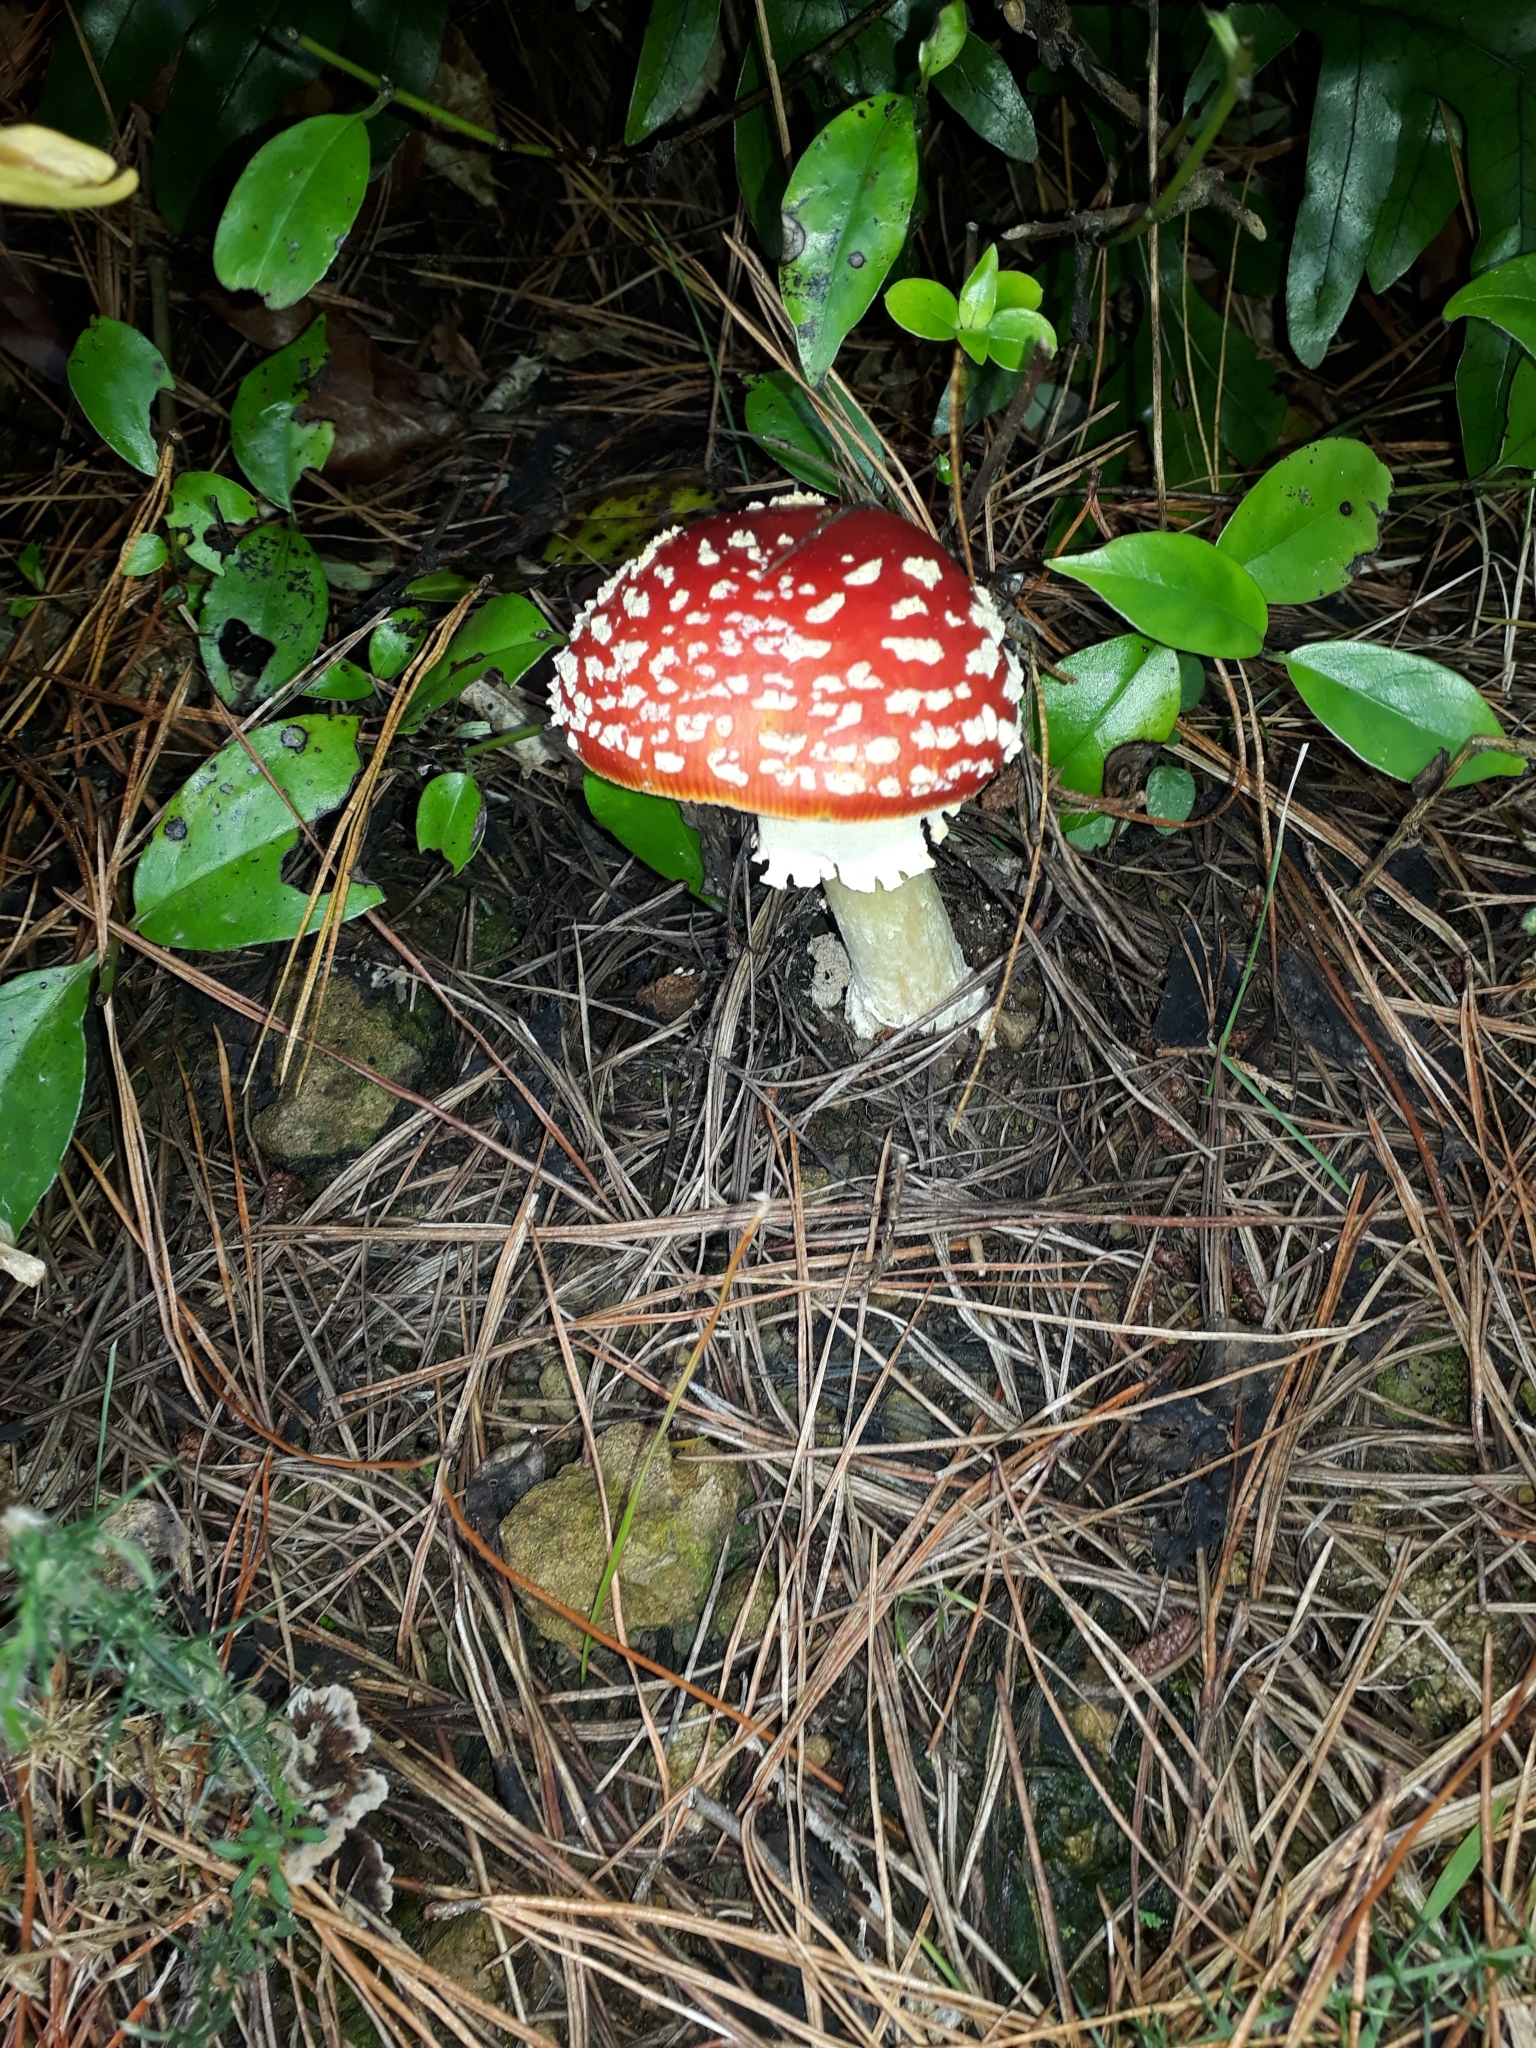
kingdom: Fungi
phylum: Basidiomycota
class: Agaricomycetes
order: Agaricales
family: Amanitaceae
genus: Amanita
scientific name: Amanita muscaria
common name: Fly agaric
